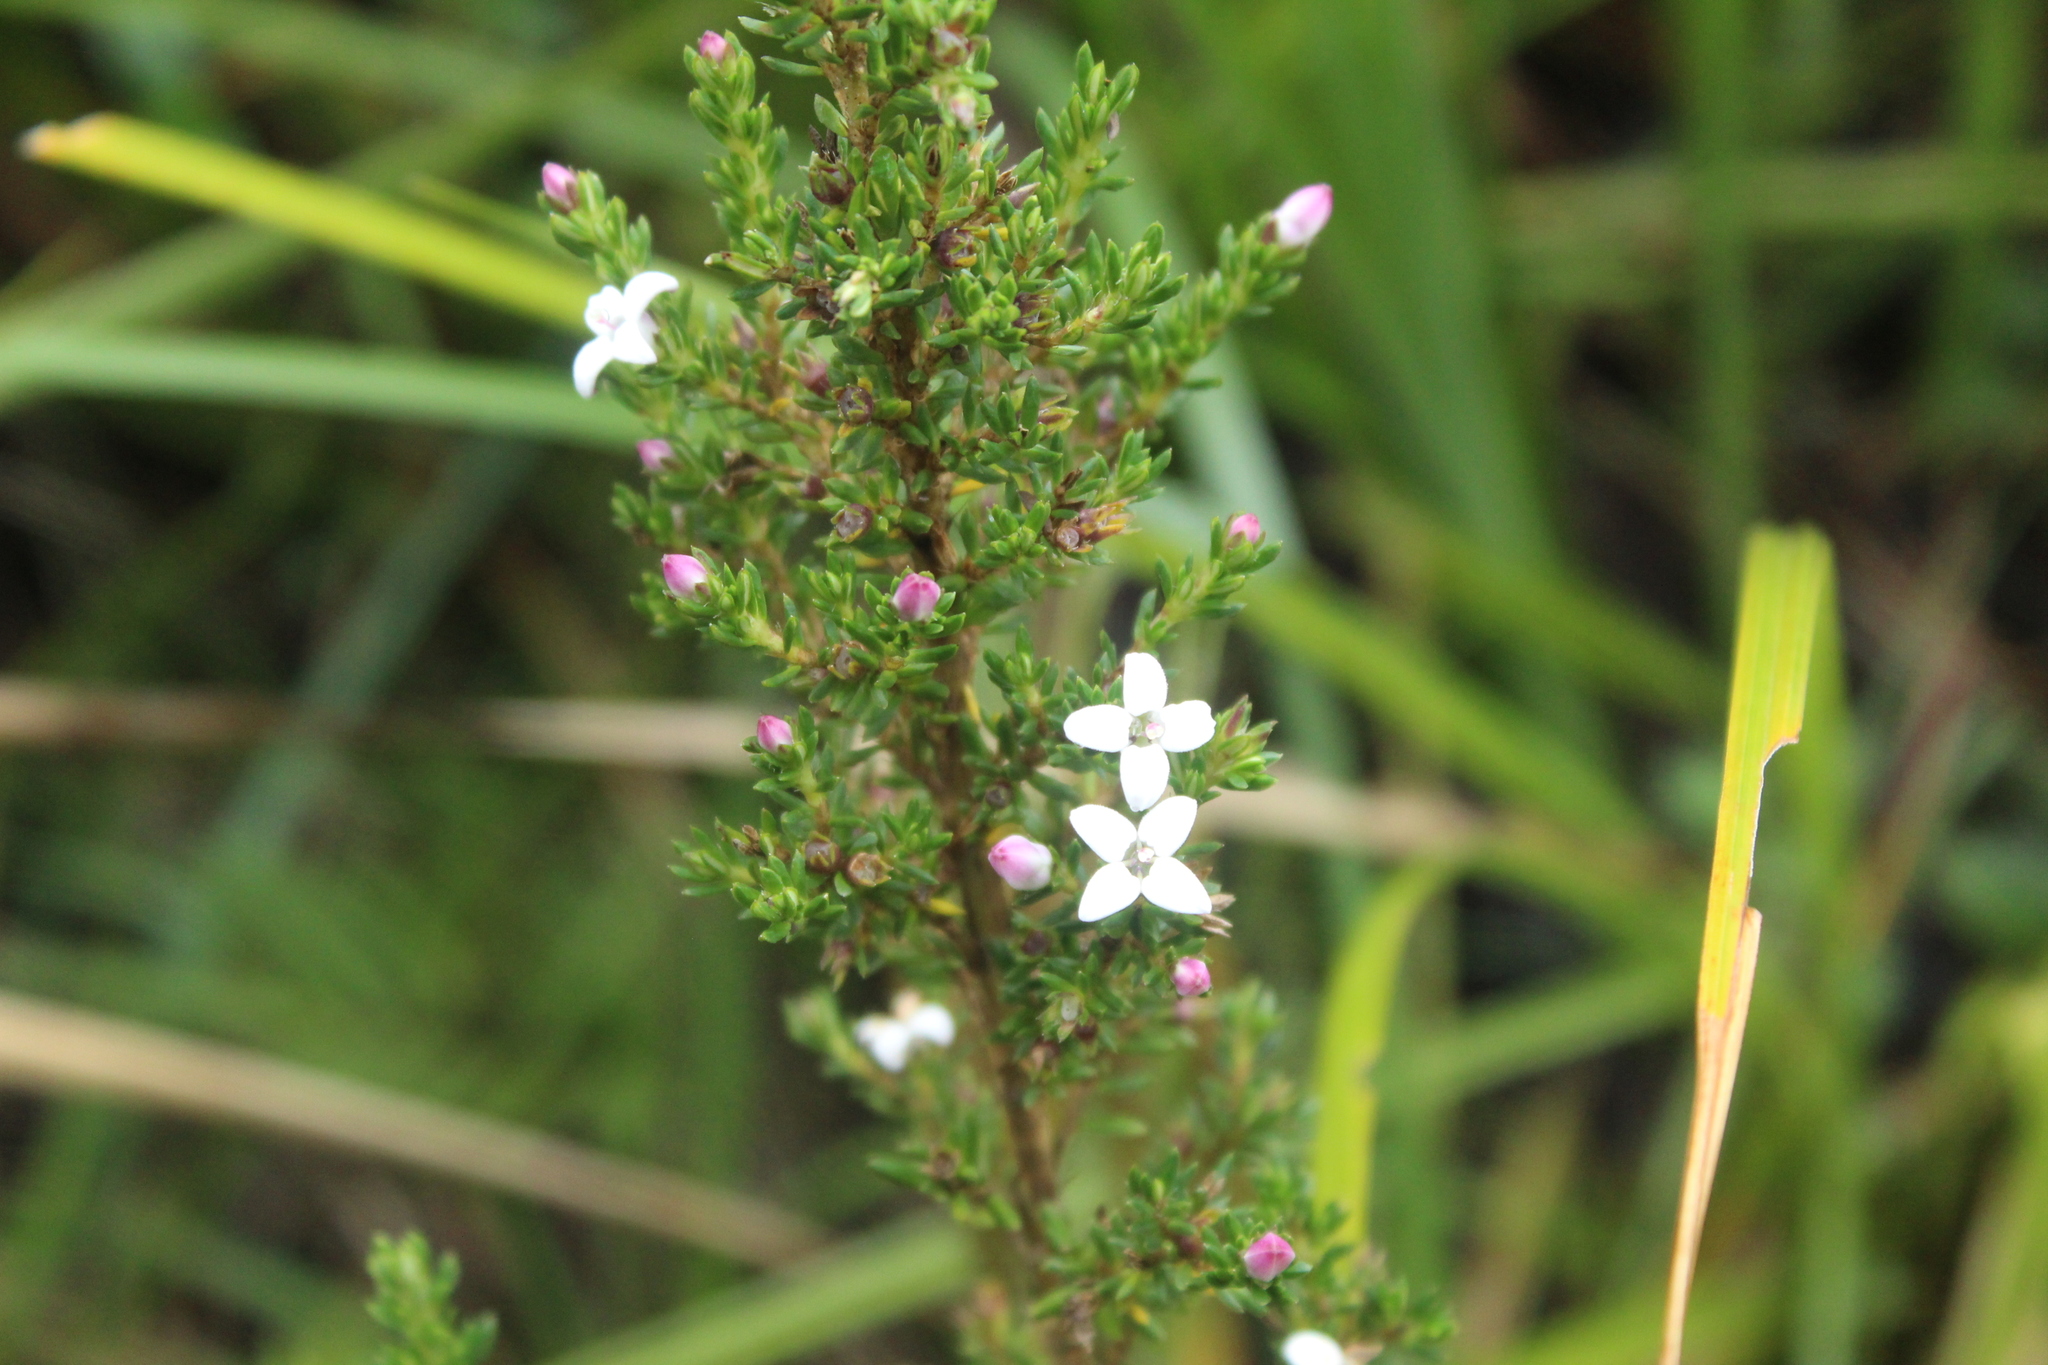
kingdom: Plantae
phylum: Tracheophyta
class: Magnoliopsida
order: Gentianales
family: Rubiaceae
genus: Arcytophyllum
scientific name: Arcytophyllum nitidum
